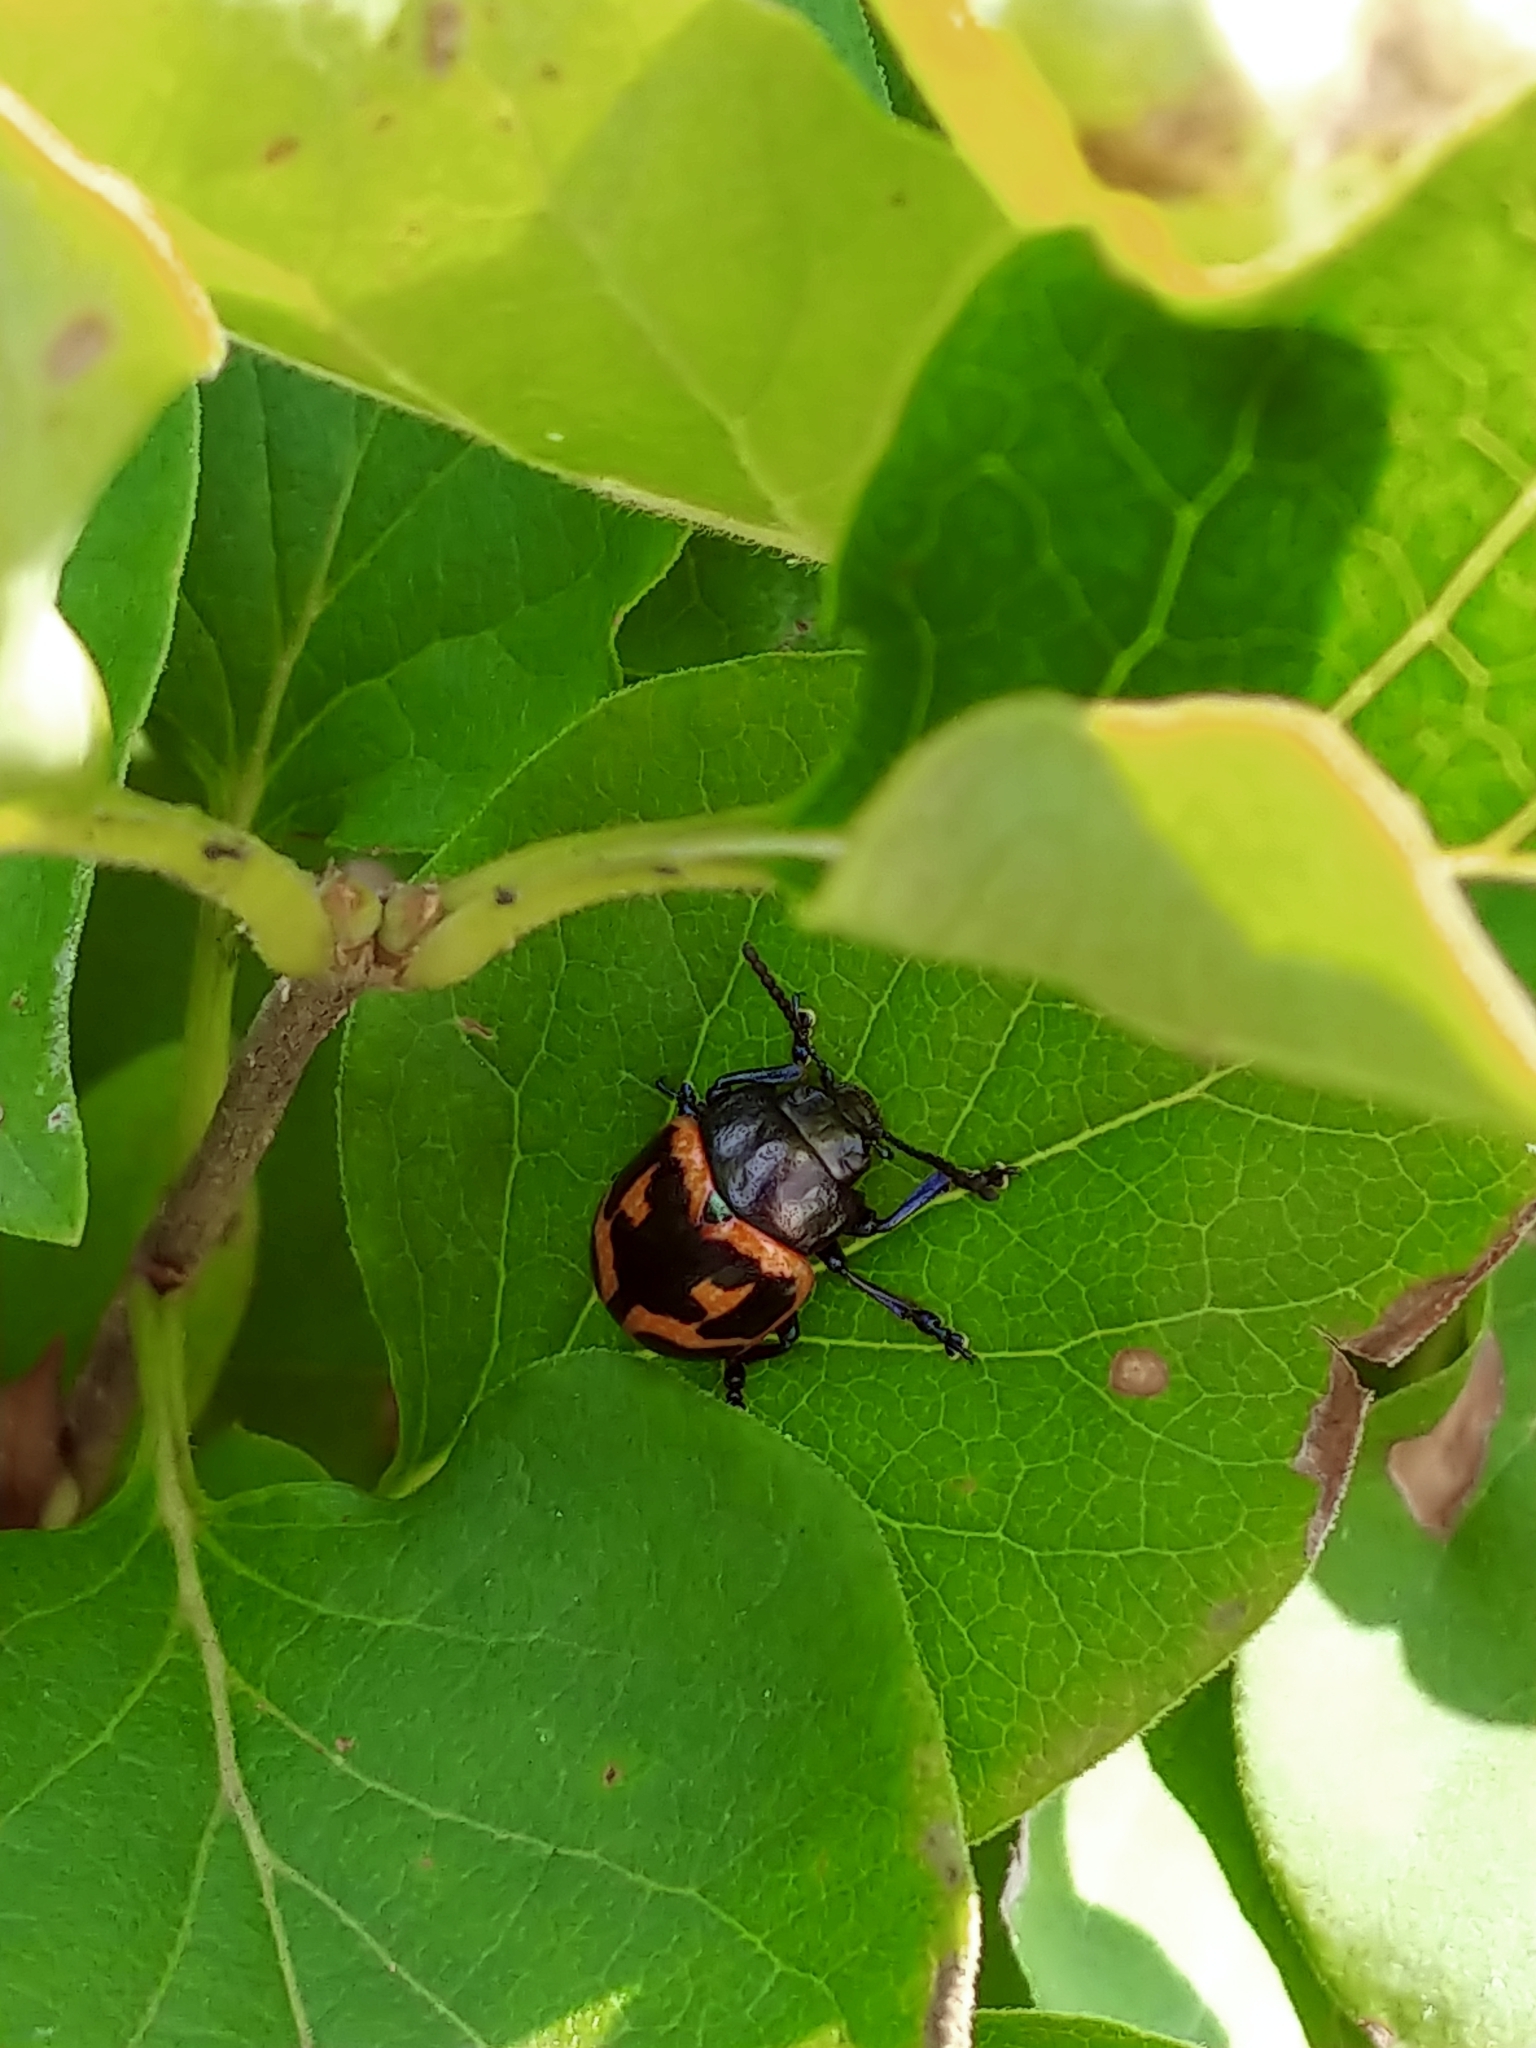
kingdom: Animalia
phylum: Arthropoda
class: Insecta
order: Coleoptera
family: Chrysomelidae
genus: Labidomera
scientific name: Labidomera clivicollis
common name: Swamp milkweed leaf beetle
